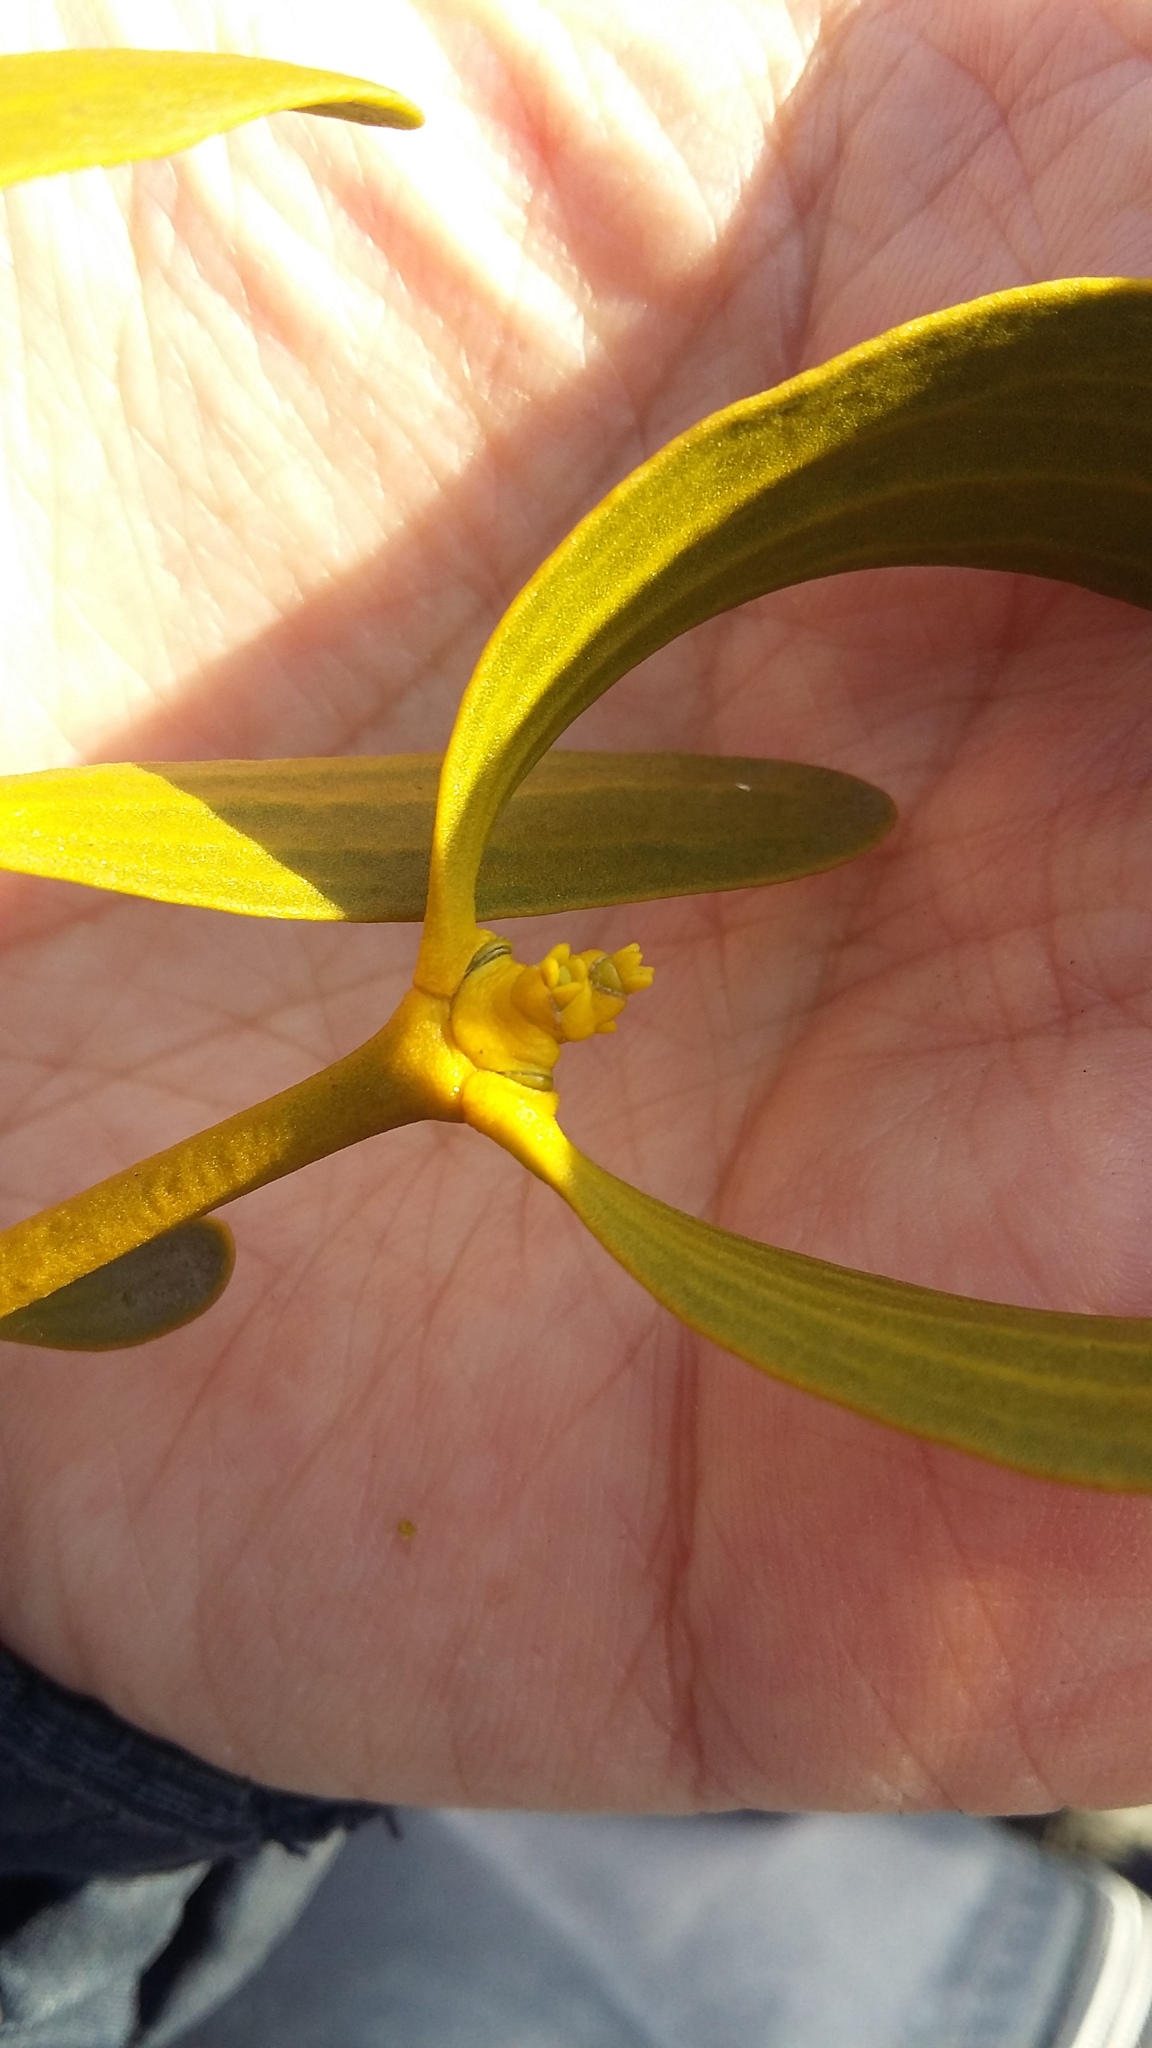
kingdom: Plantae
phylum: Tracheophyta
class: Magnoliopsida
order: Santalales
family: Viscaceae
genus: Viscum
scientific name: Viscum album
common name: Mistletoe
